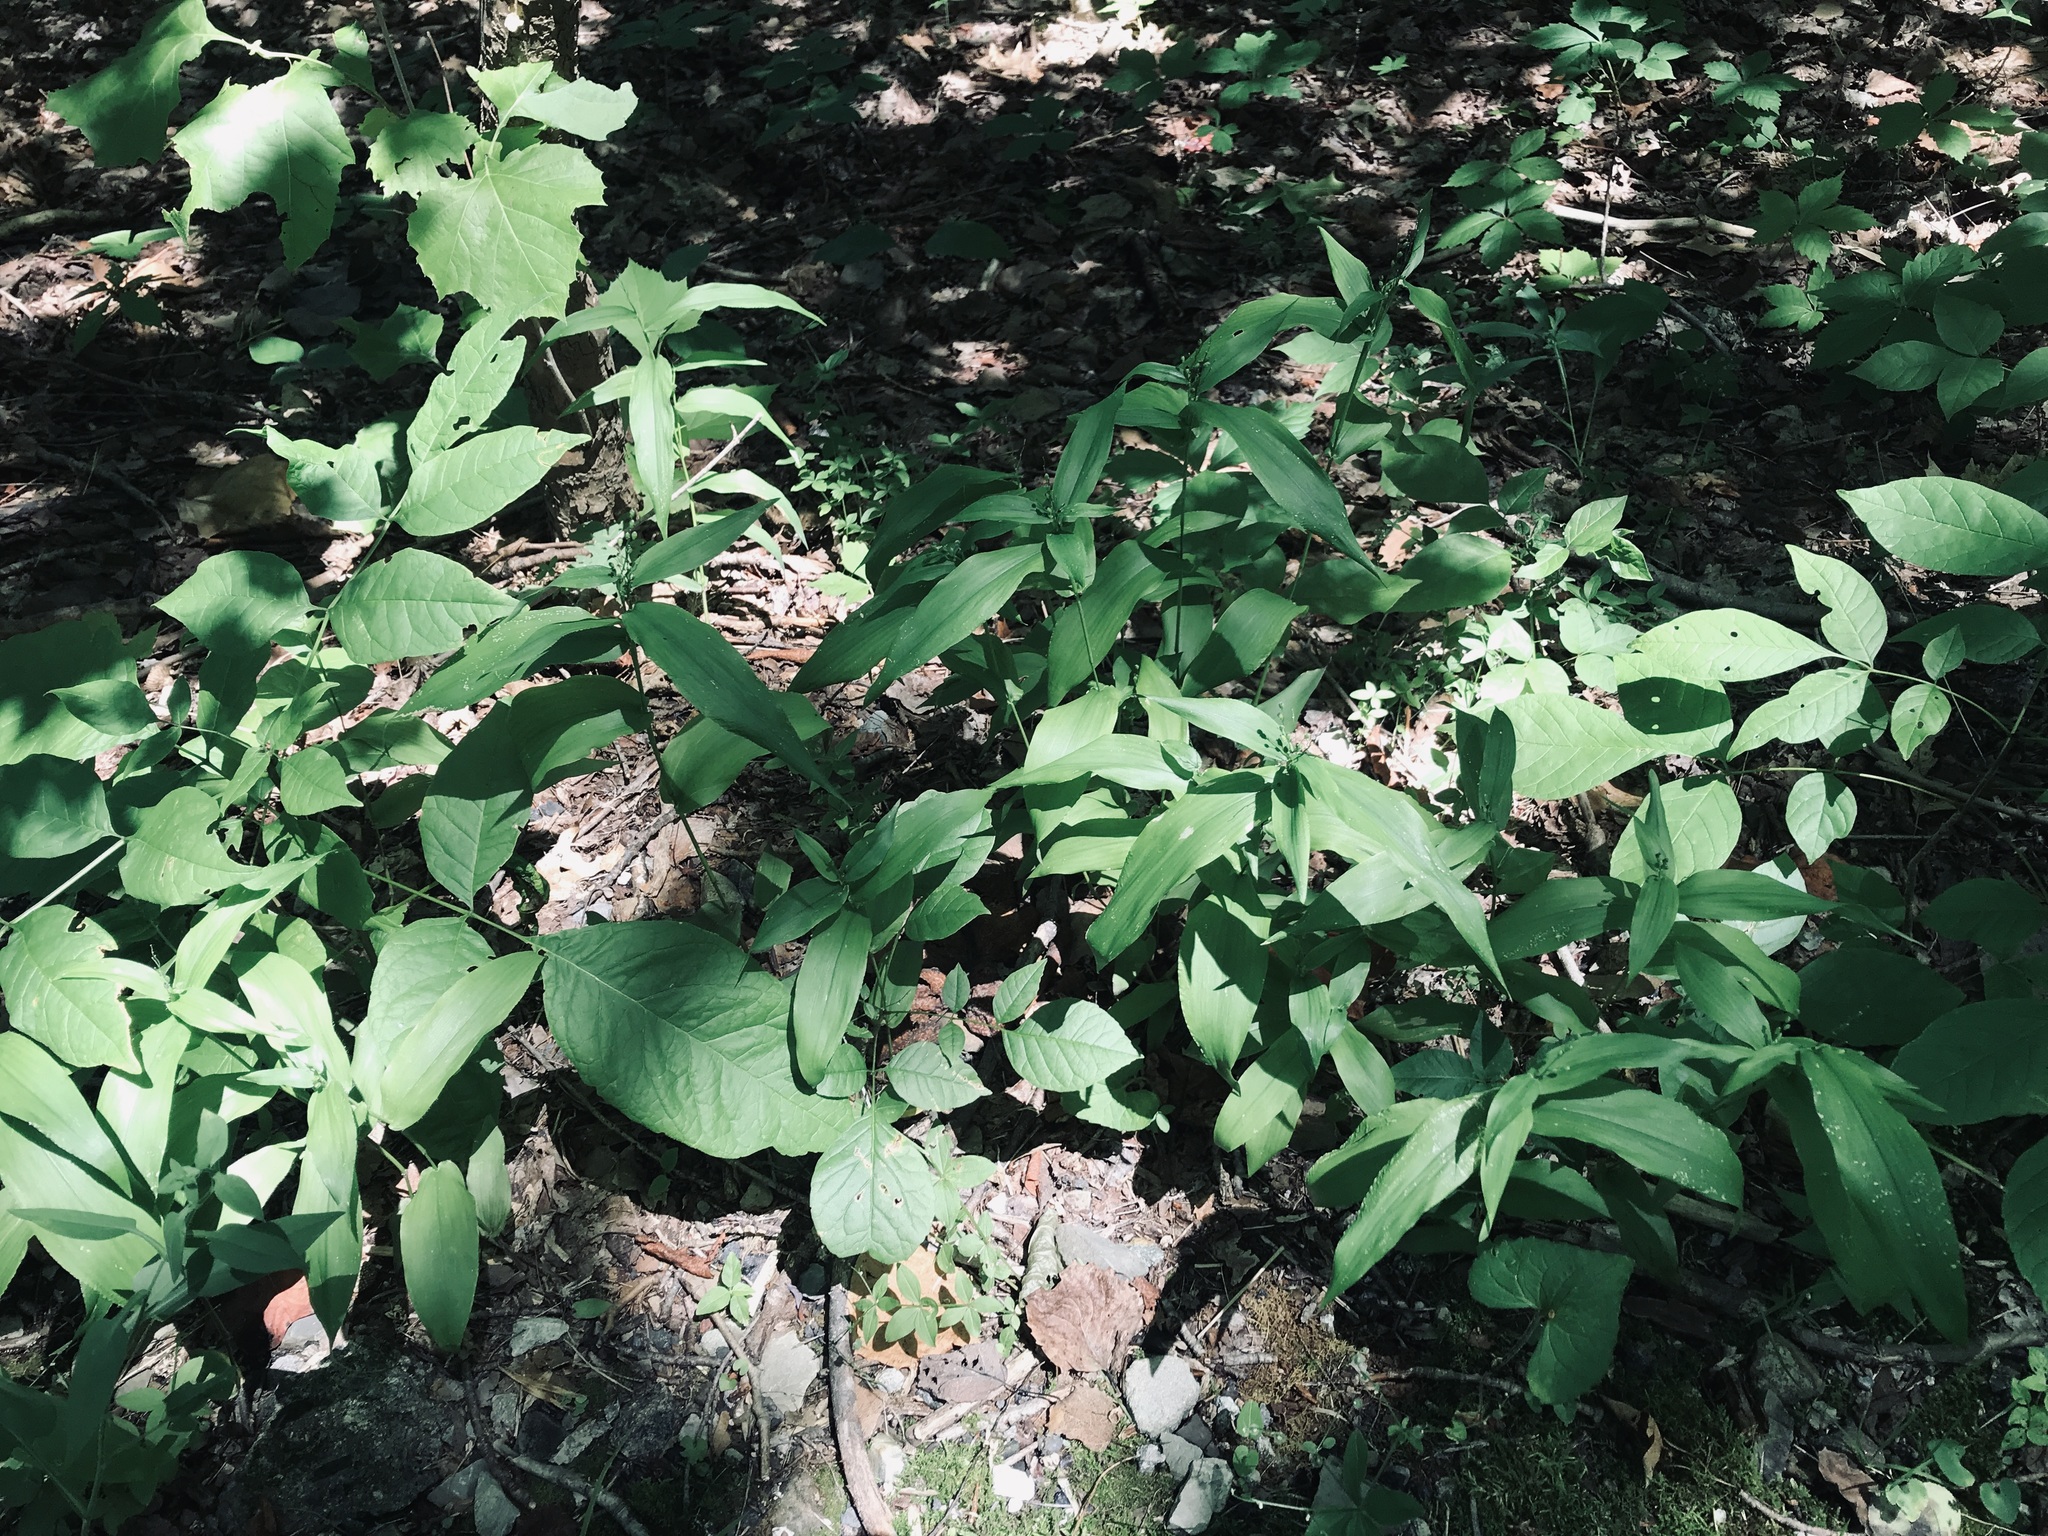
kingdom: Plantae
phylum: Tracheophyta
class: Liliopsida
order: Poales
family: Poaceae
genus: Dichanthelium
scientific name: Dichanthelium latifolium
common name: Broad-leaved panicgrass
